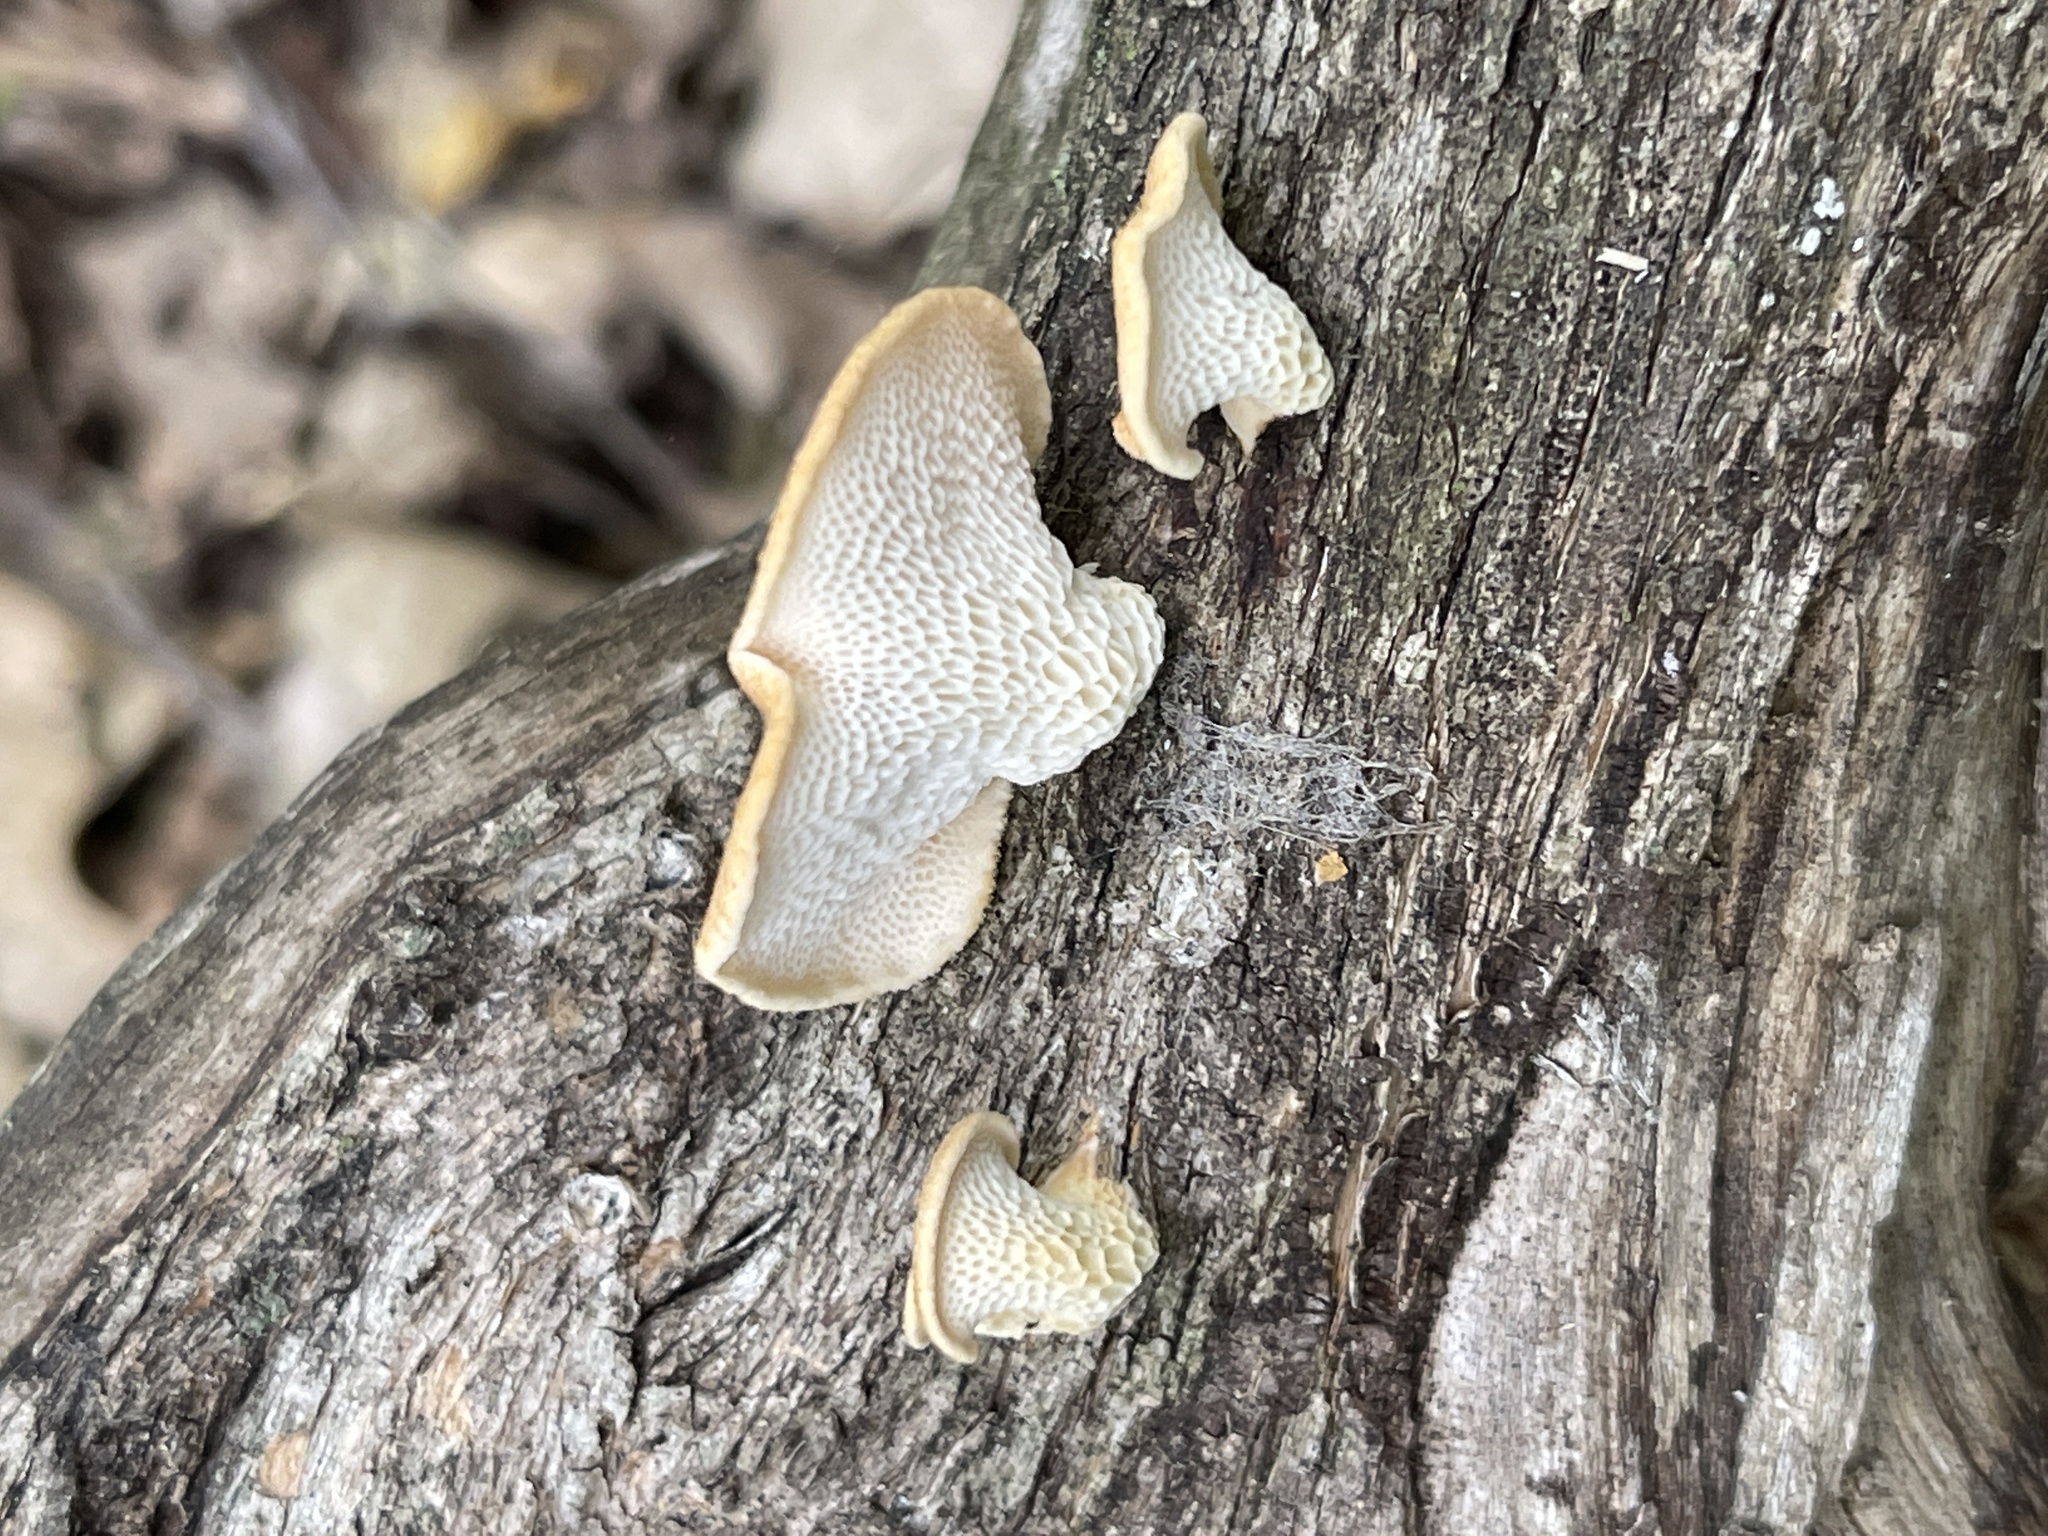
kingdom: Fungi
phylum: Basidiomycota
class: Agaricomycetes
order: Polyporales
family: Polyporaceae
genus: Neofavolus
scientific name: Neofavolus alveolaris
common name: Hexagonal-pored polypore
